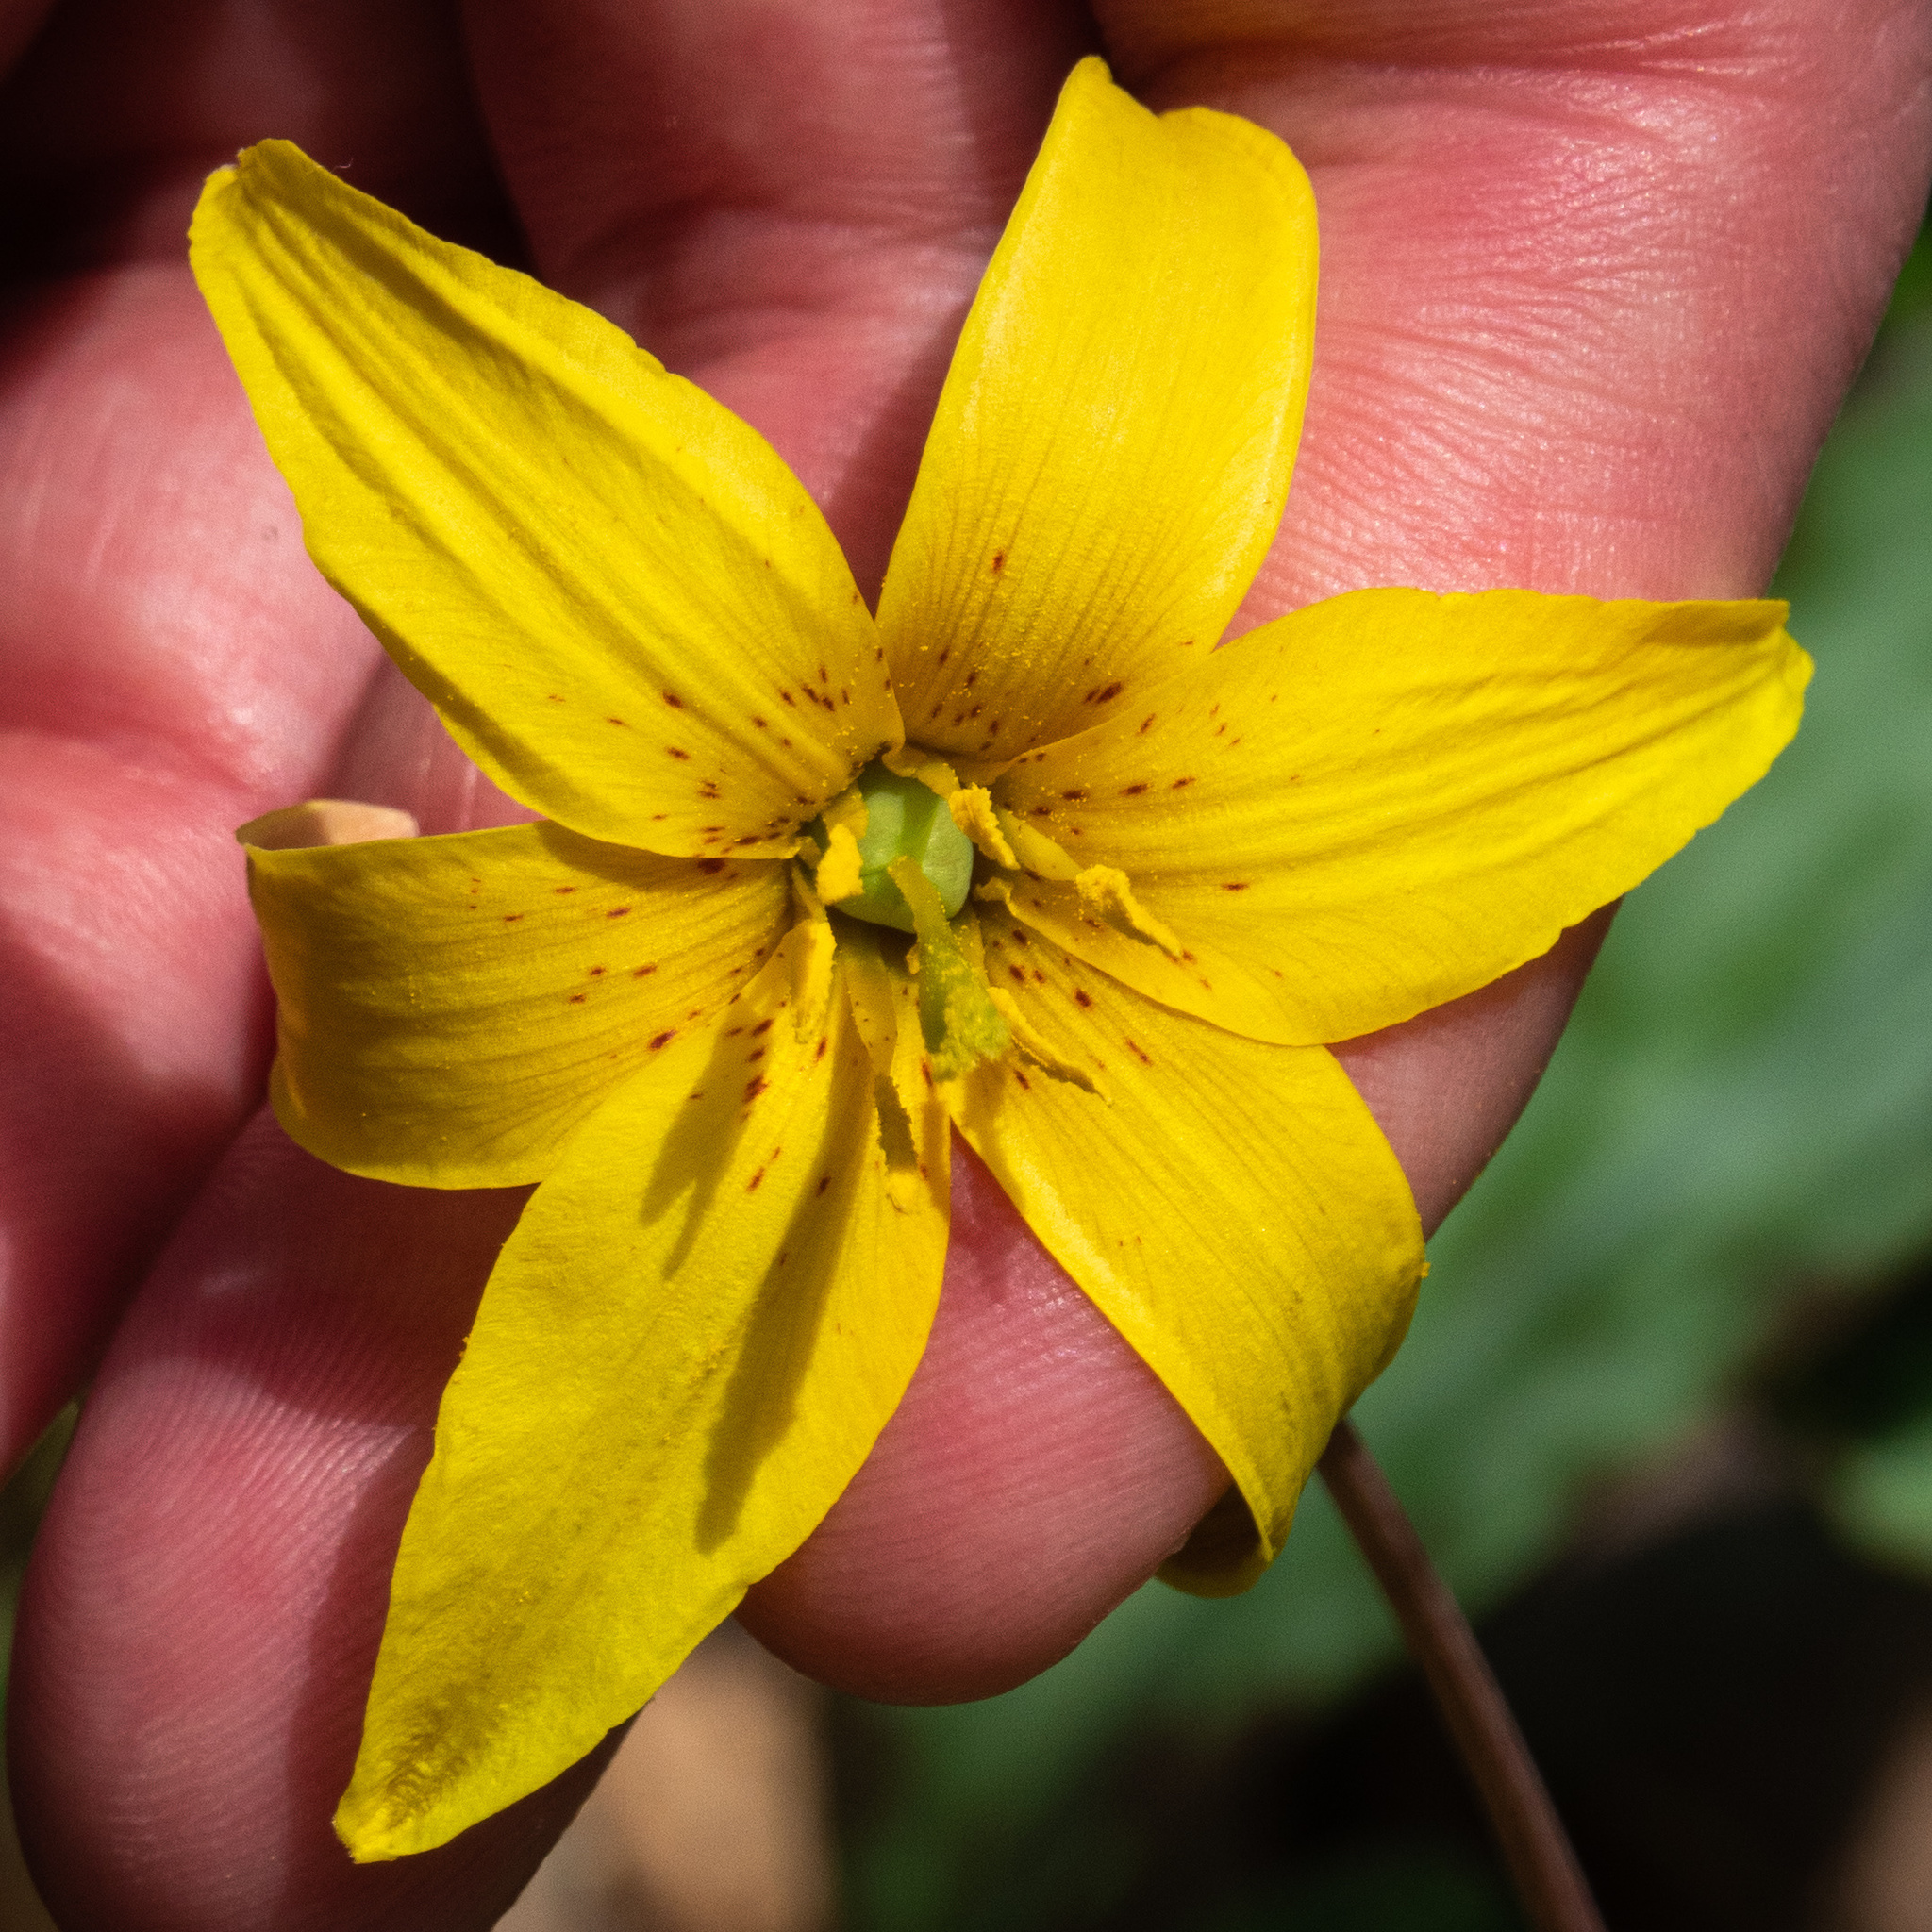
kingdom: Plantae
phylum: Tracheophyta
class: Liliopsida
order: Liliales
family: Liliaceae
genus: Erythronium
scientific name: Erythronium americanum
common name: Yellow adder's-tongue
